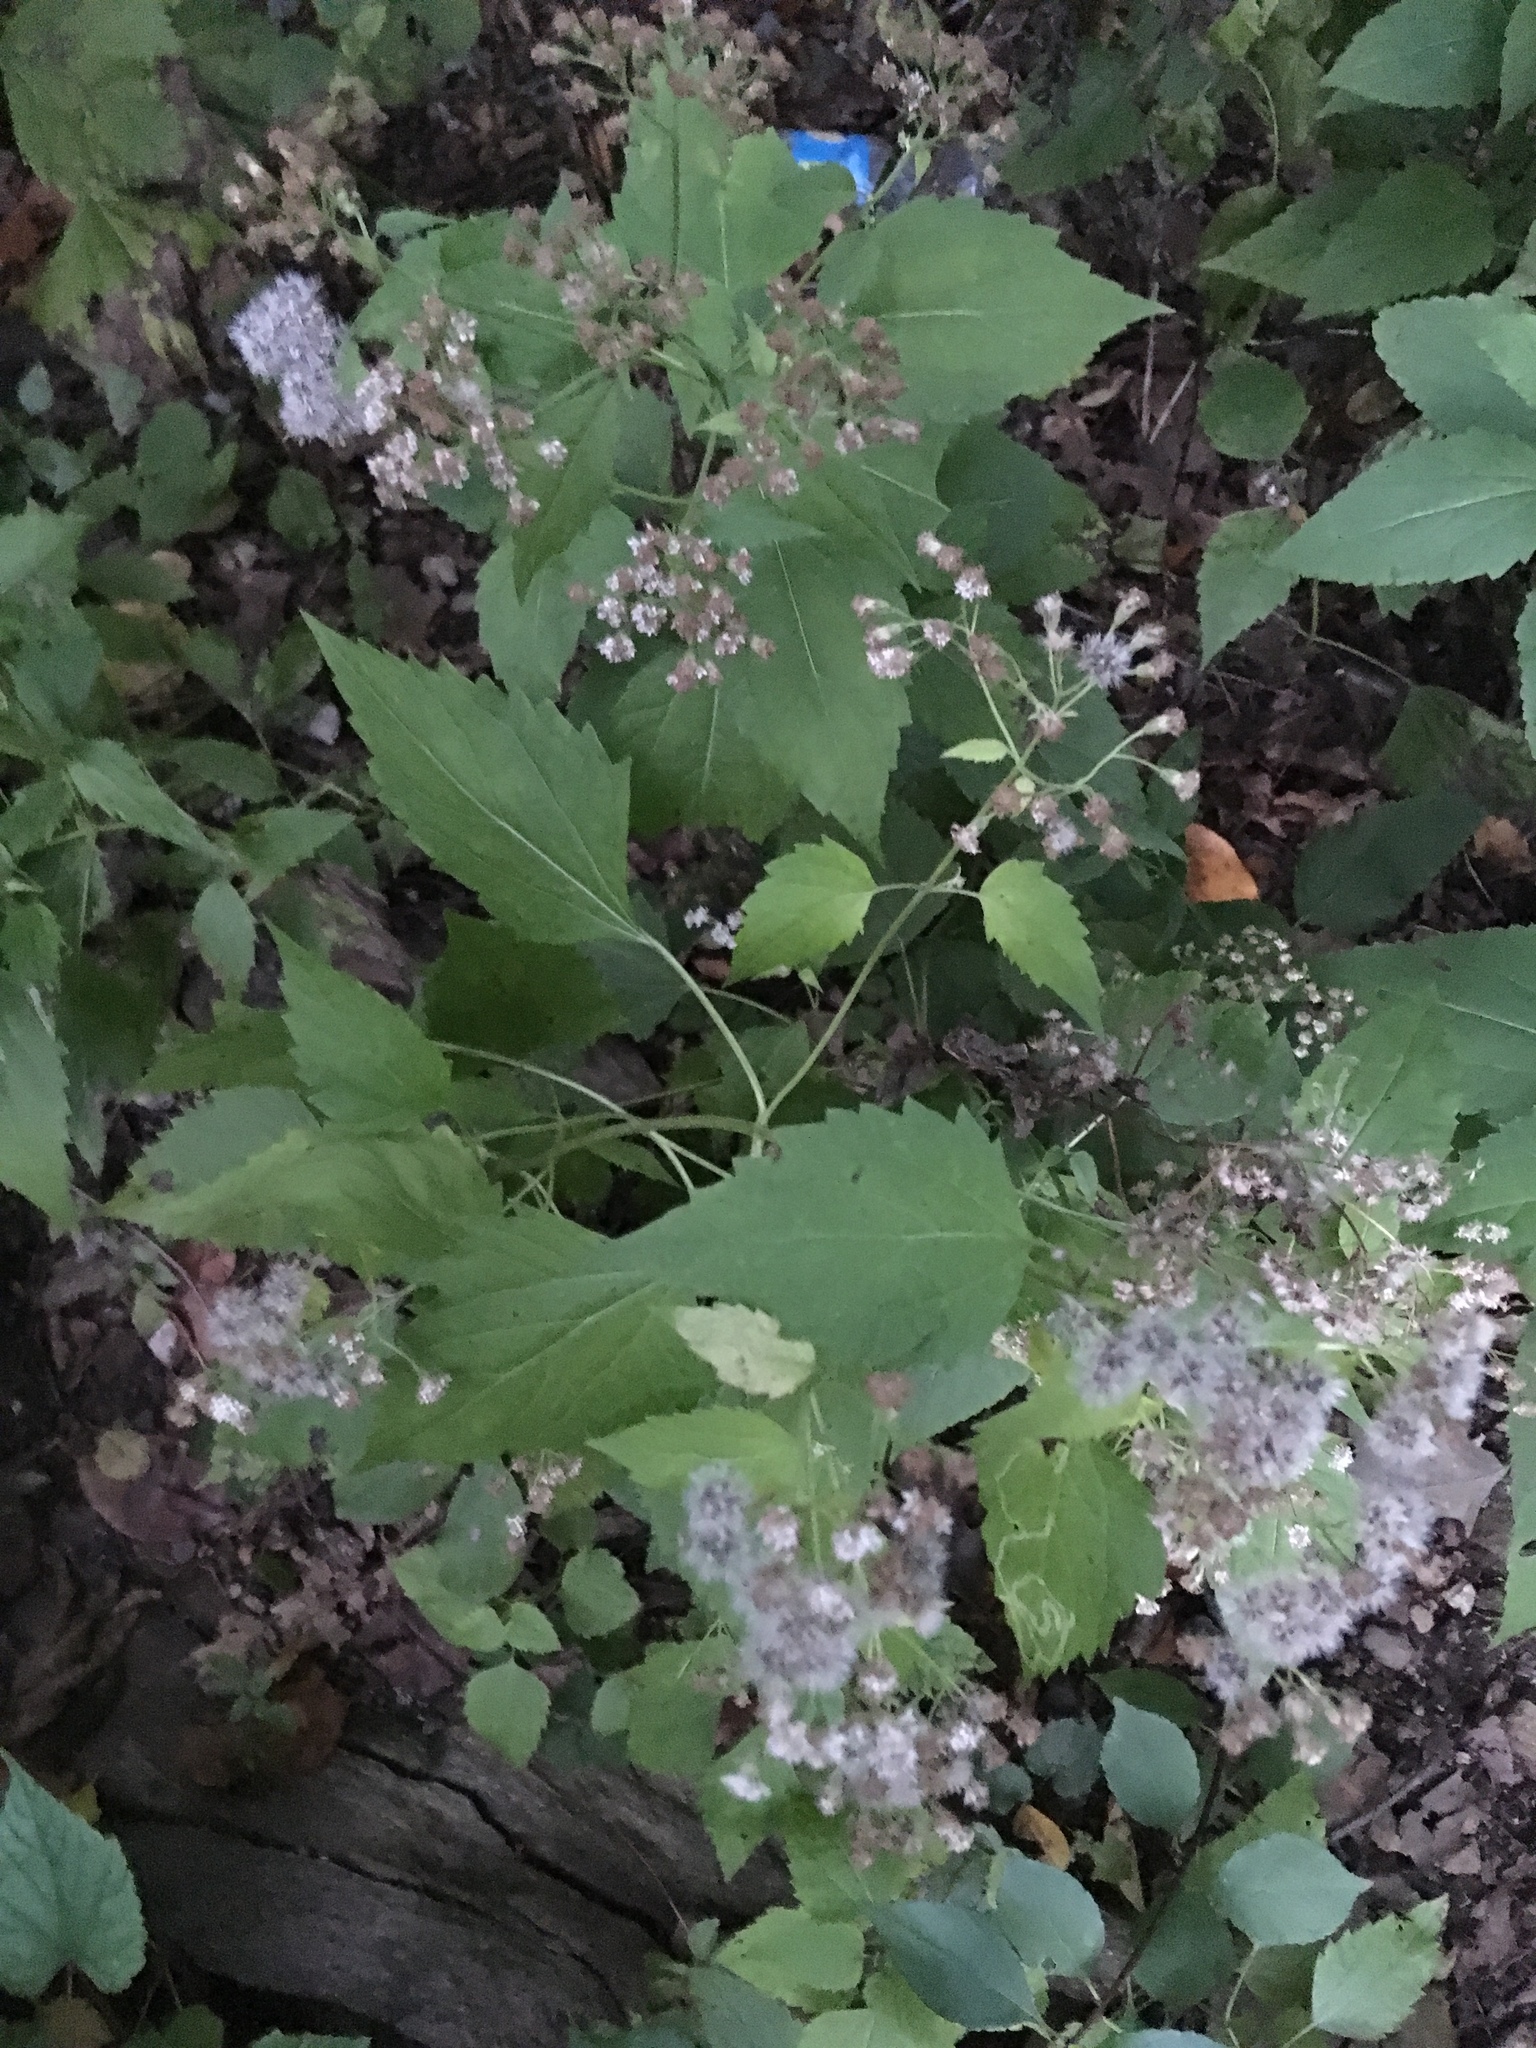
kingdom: Plantae
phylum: Tracheophyta
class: Magnoliopsida
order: Asterales
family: Asteraceae
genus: Ageratina
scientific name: Ageratina altissima
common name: White snakeroot
